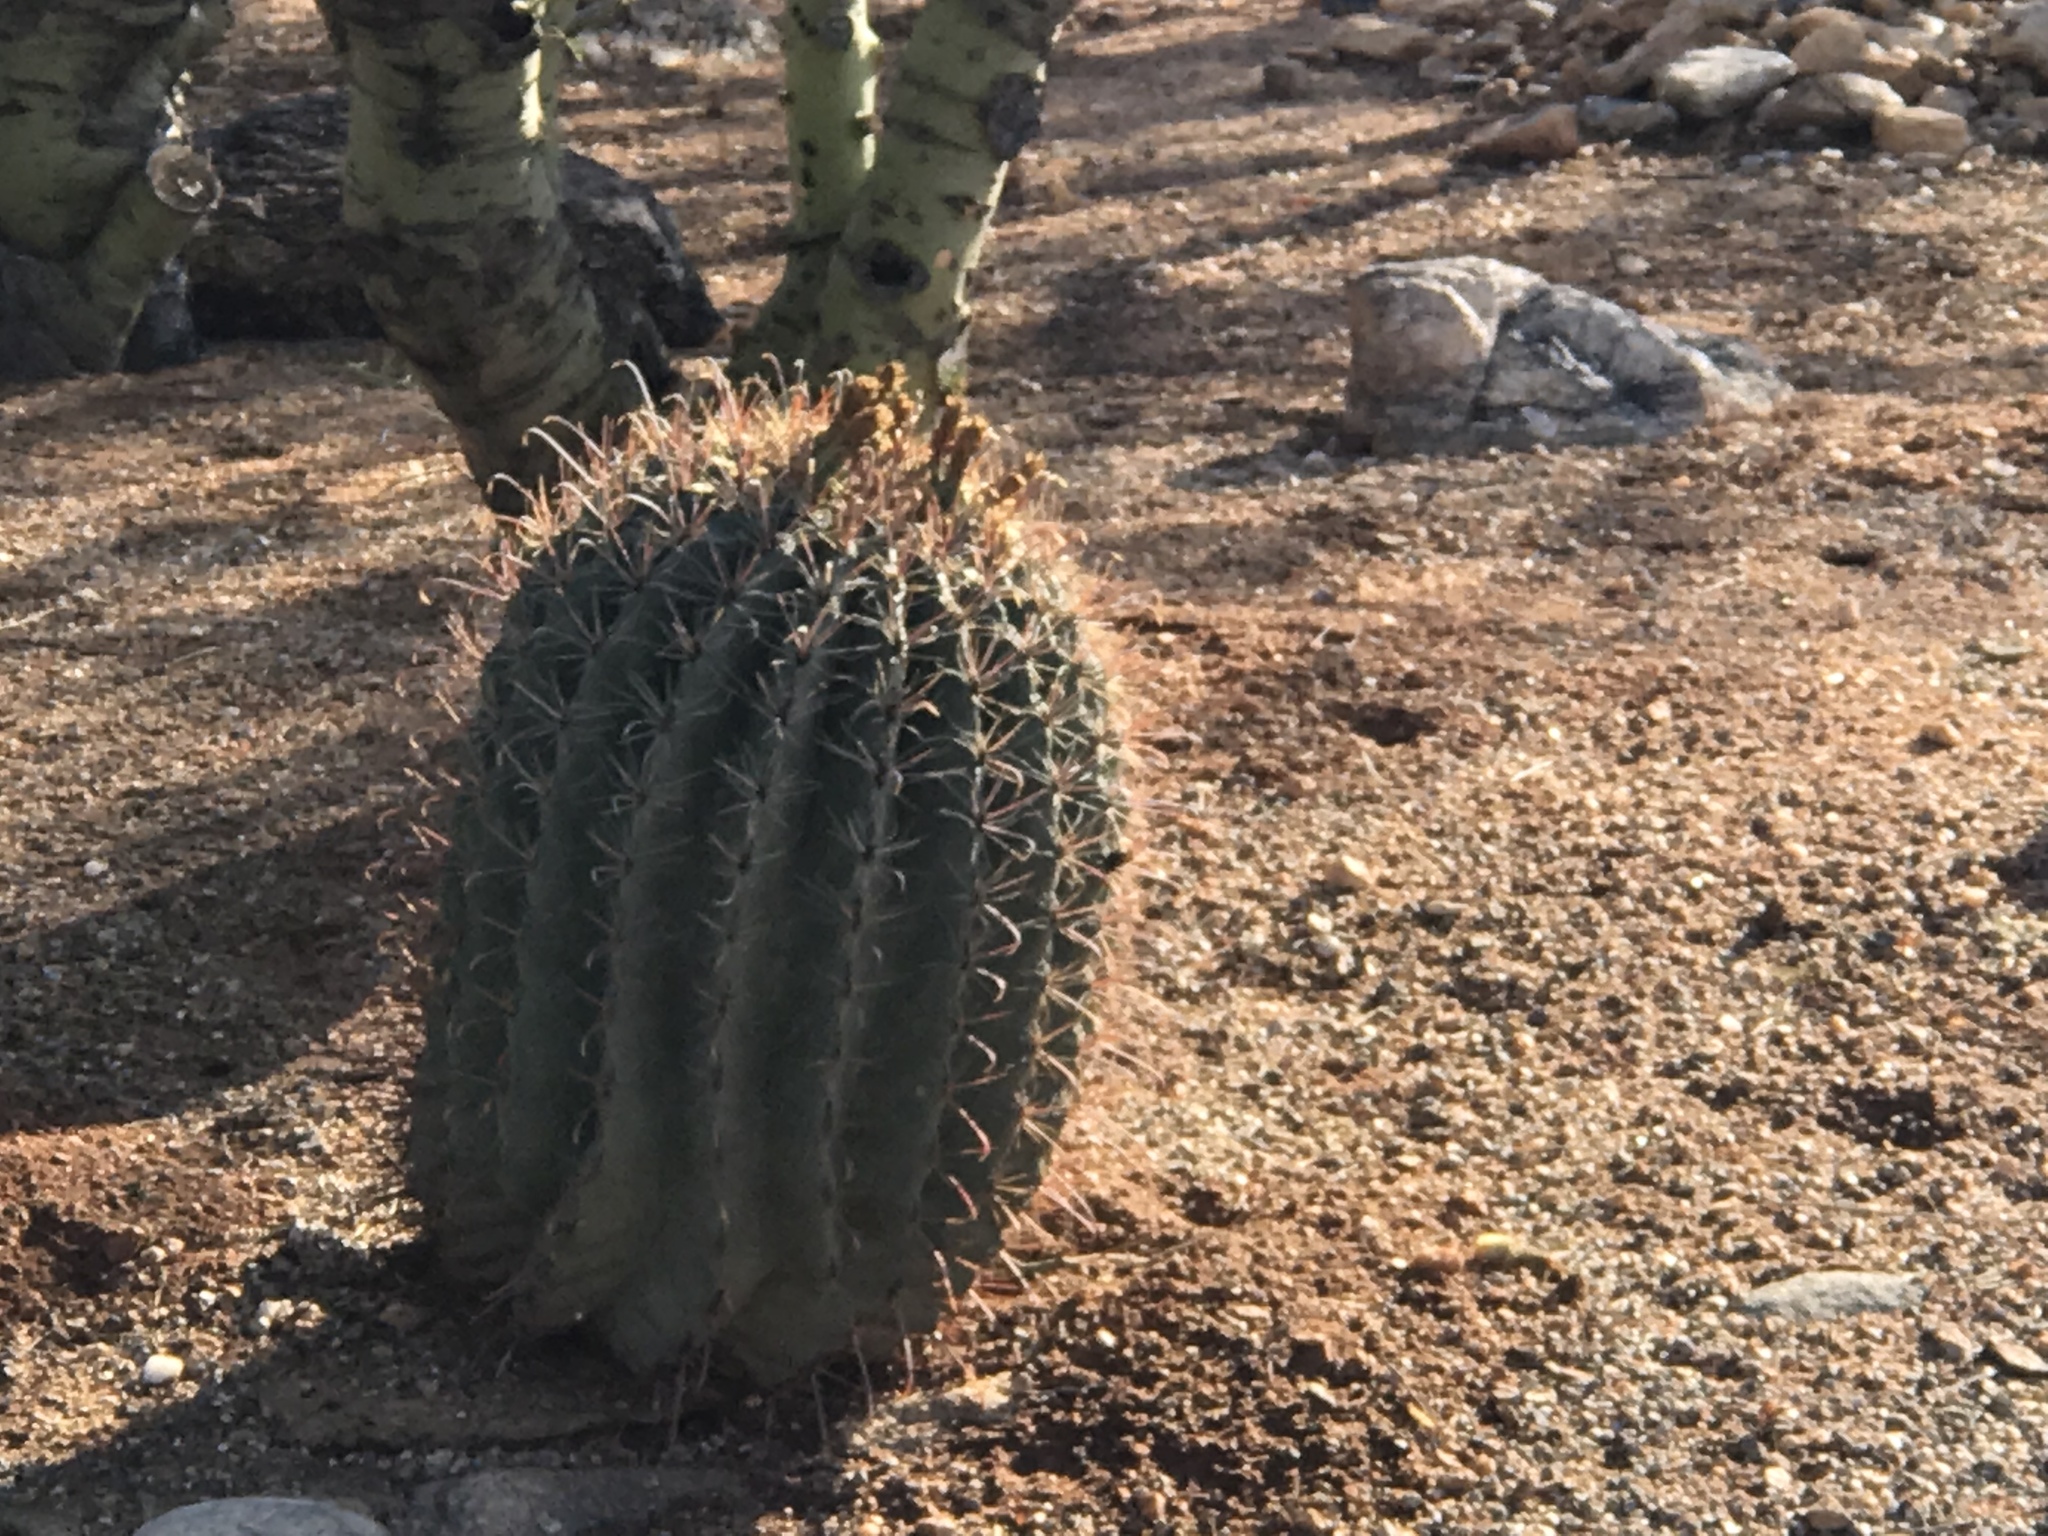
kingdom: Plantae
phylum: Tracheophyta
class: Magnoliopsida
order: Caryophyllales
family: Cactaceae
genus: Ferocactus
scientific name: Ferocactus wislizeni
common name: Candy barrel cactus
